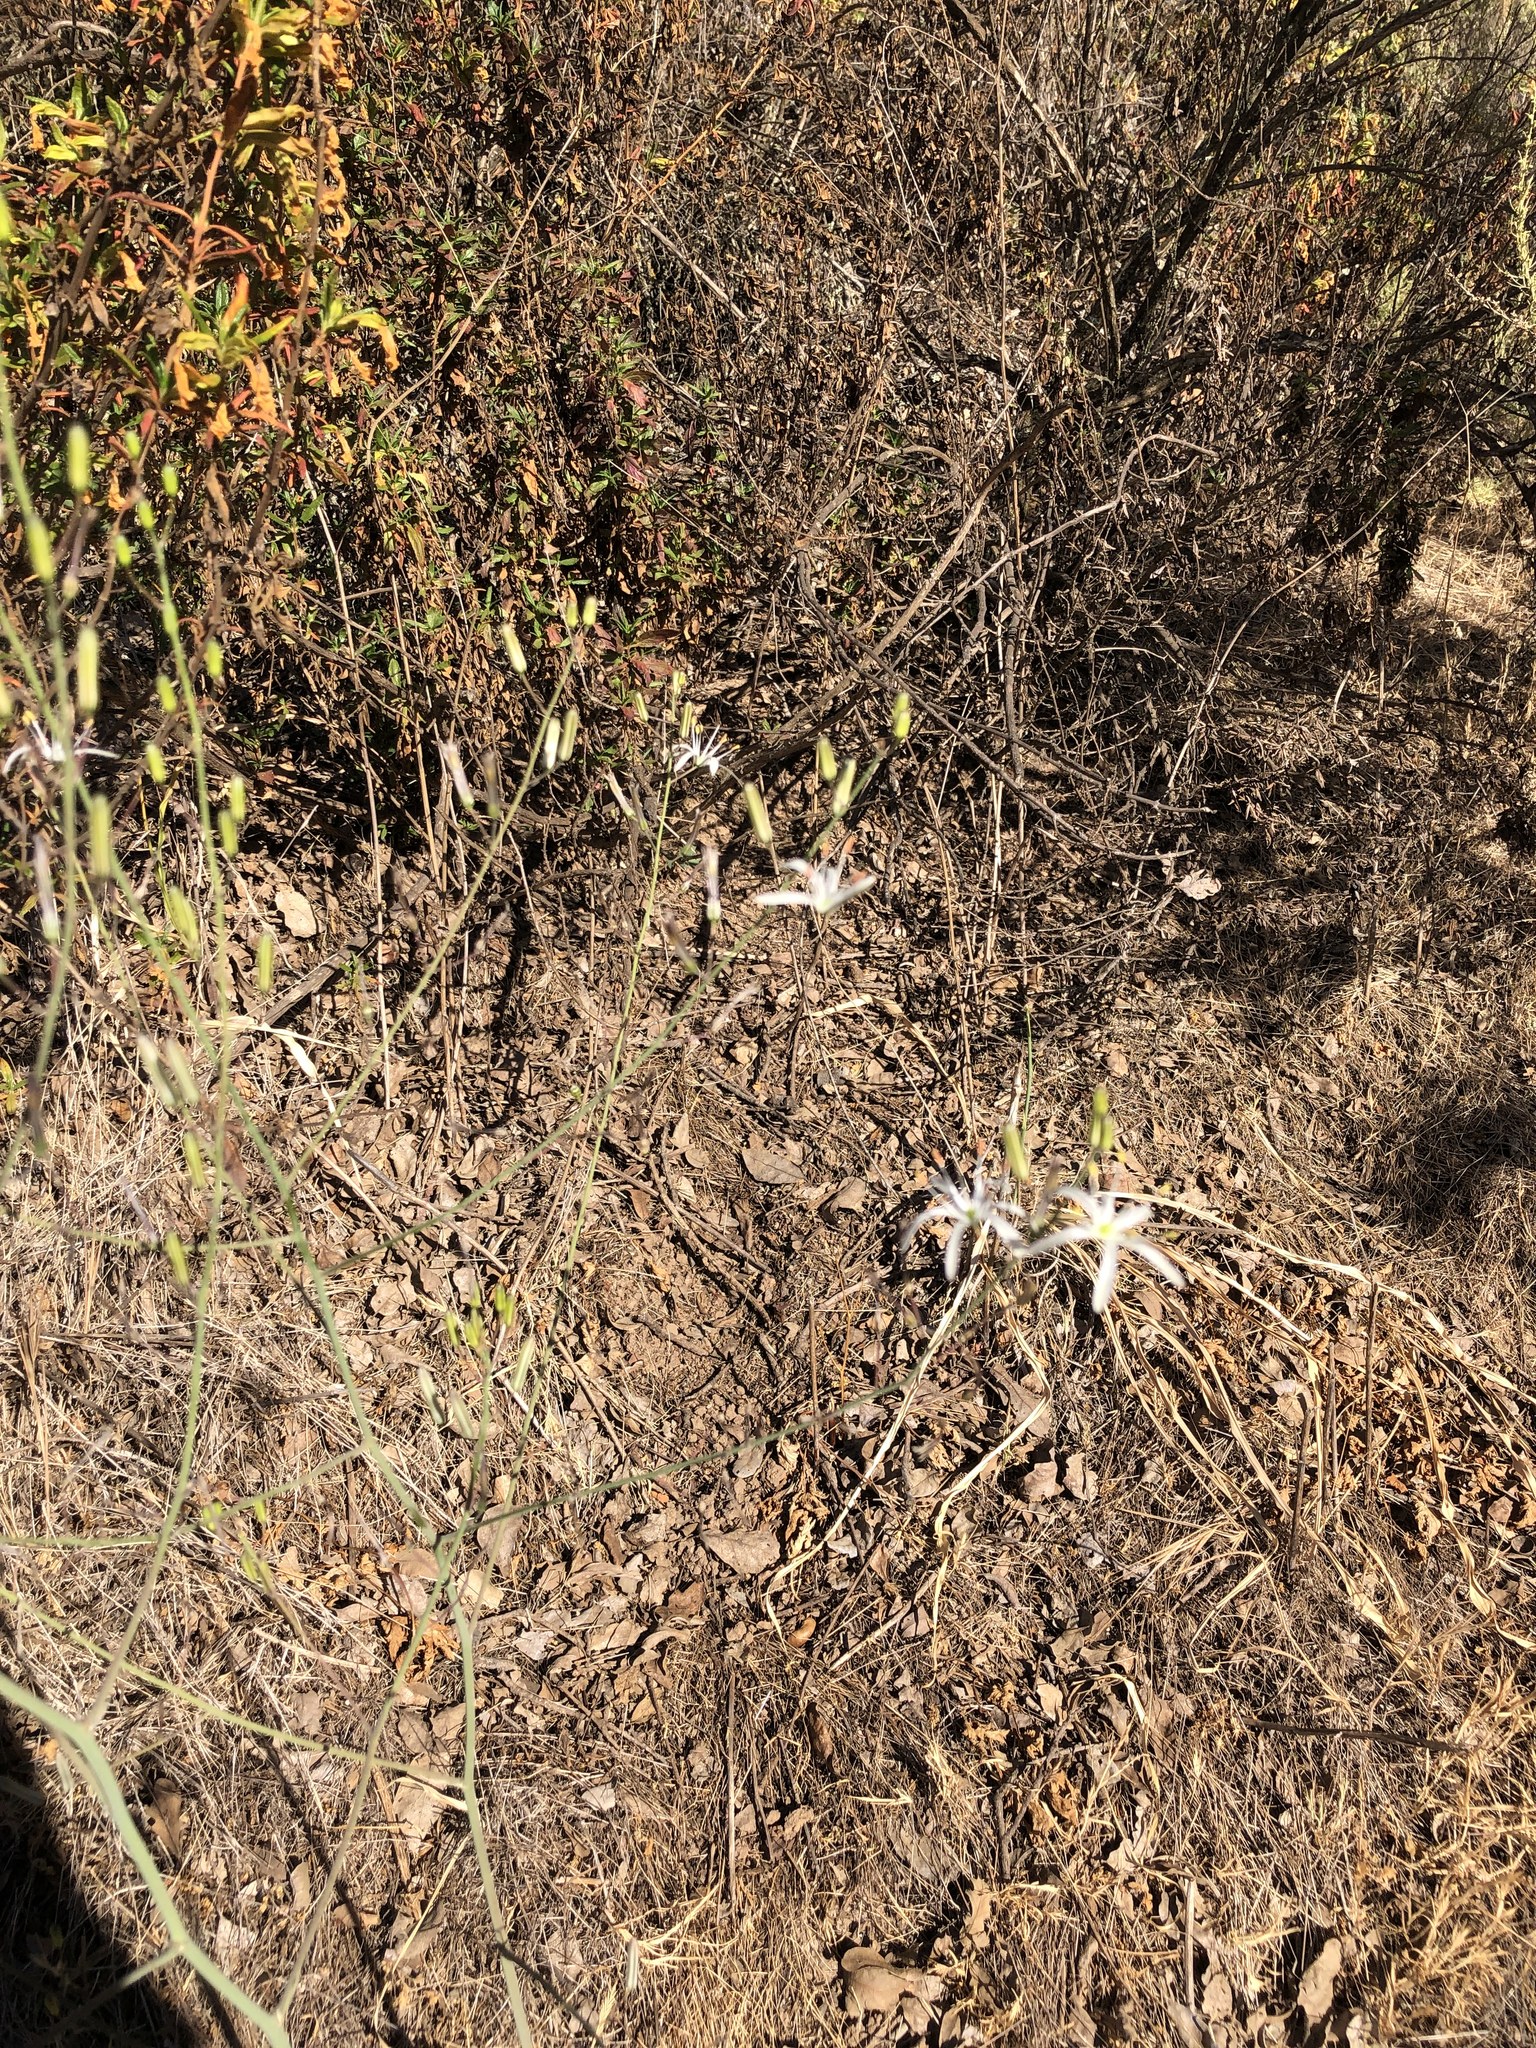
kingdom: Plantae
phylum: Tracheophyta
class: Liliopsida
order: Asparagales
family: Asparagaceae
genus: Chlorogalum
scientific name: Chlorogalum pomeridianum
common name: Amole
